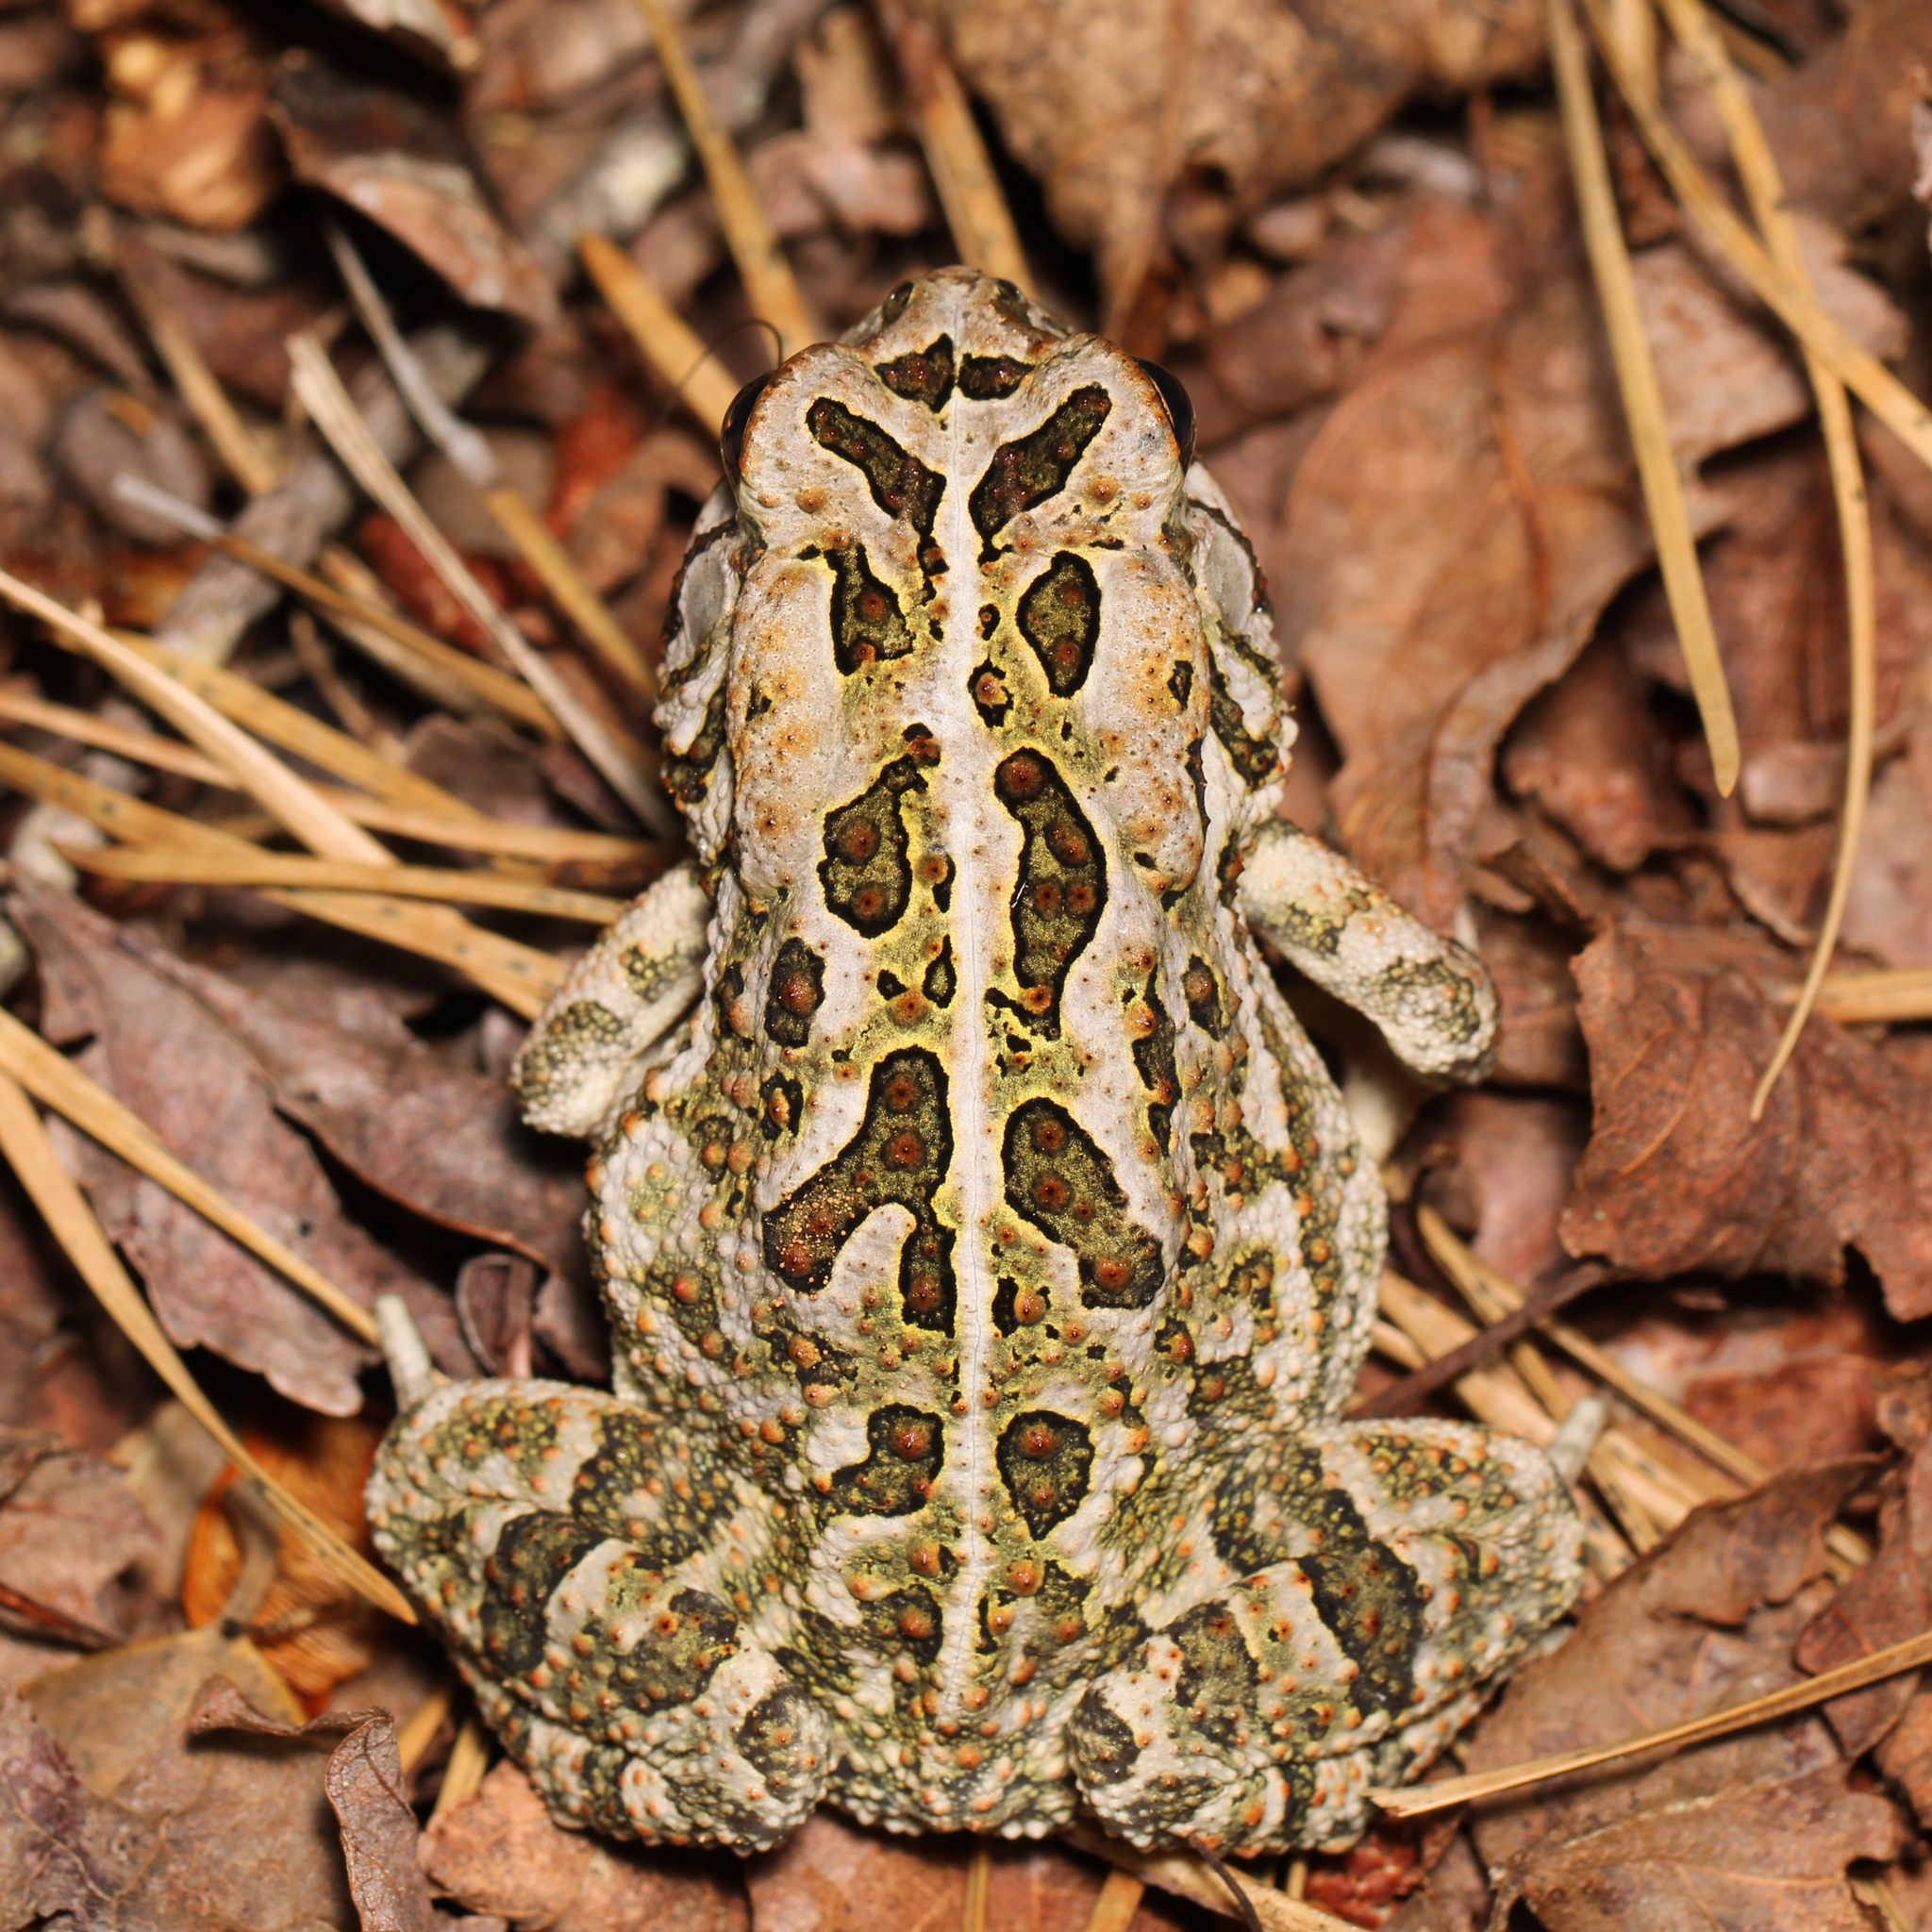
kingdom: Animalia
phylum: Chordata
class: Amphibia
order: Anura
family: Bufonidae
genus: Anaxyrus
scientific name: Anaxyrus fowleri
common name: Fowler's toad
